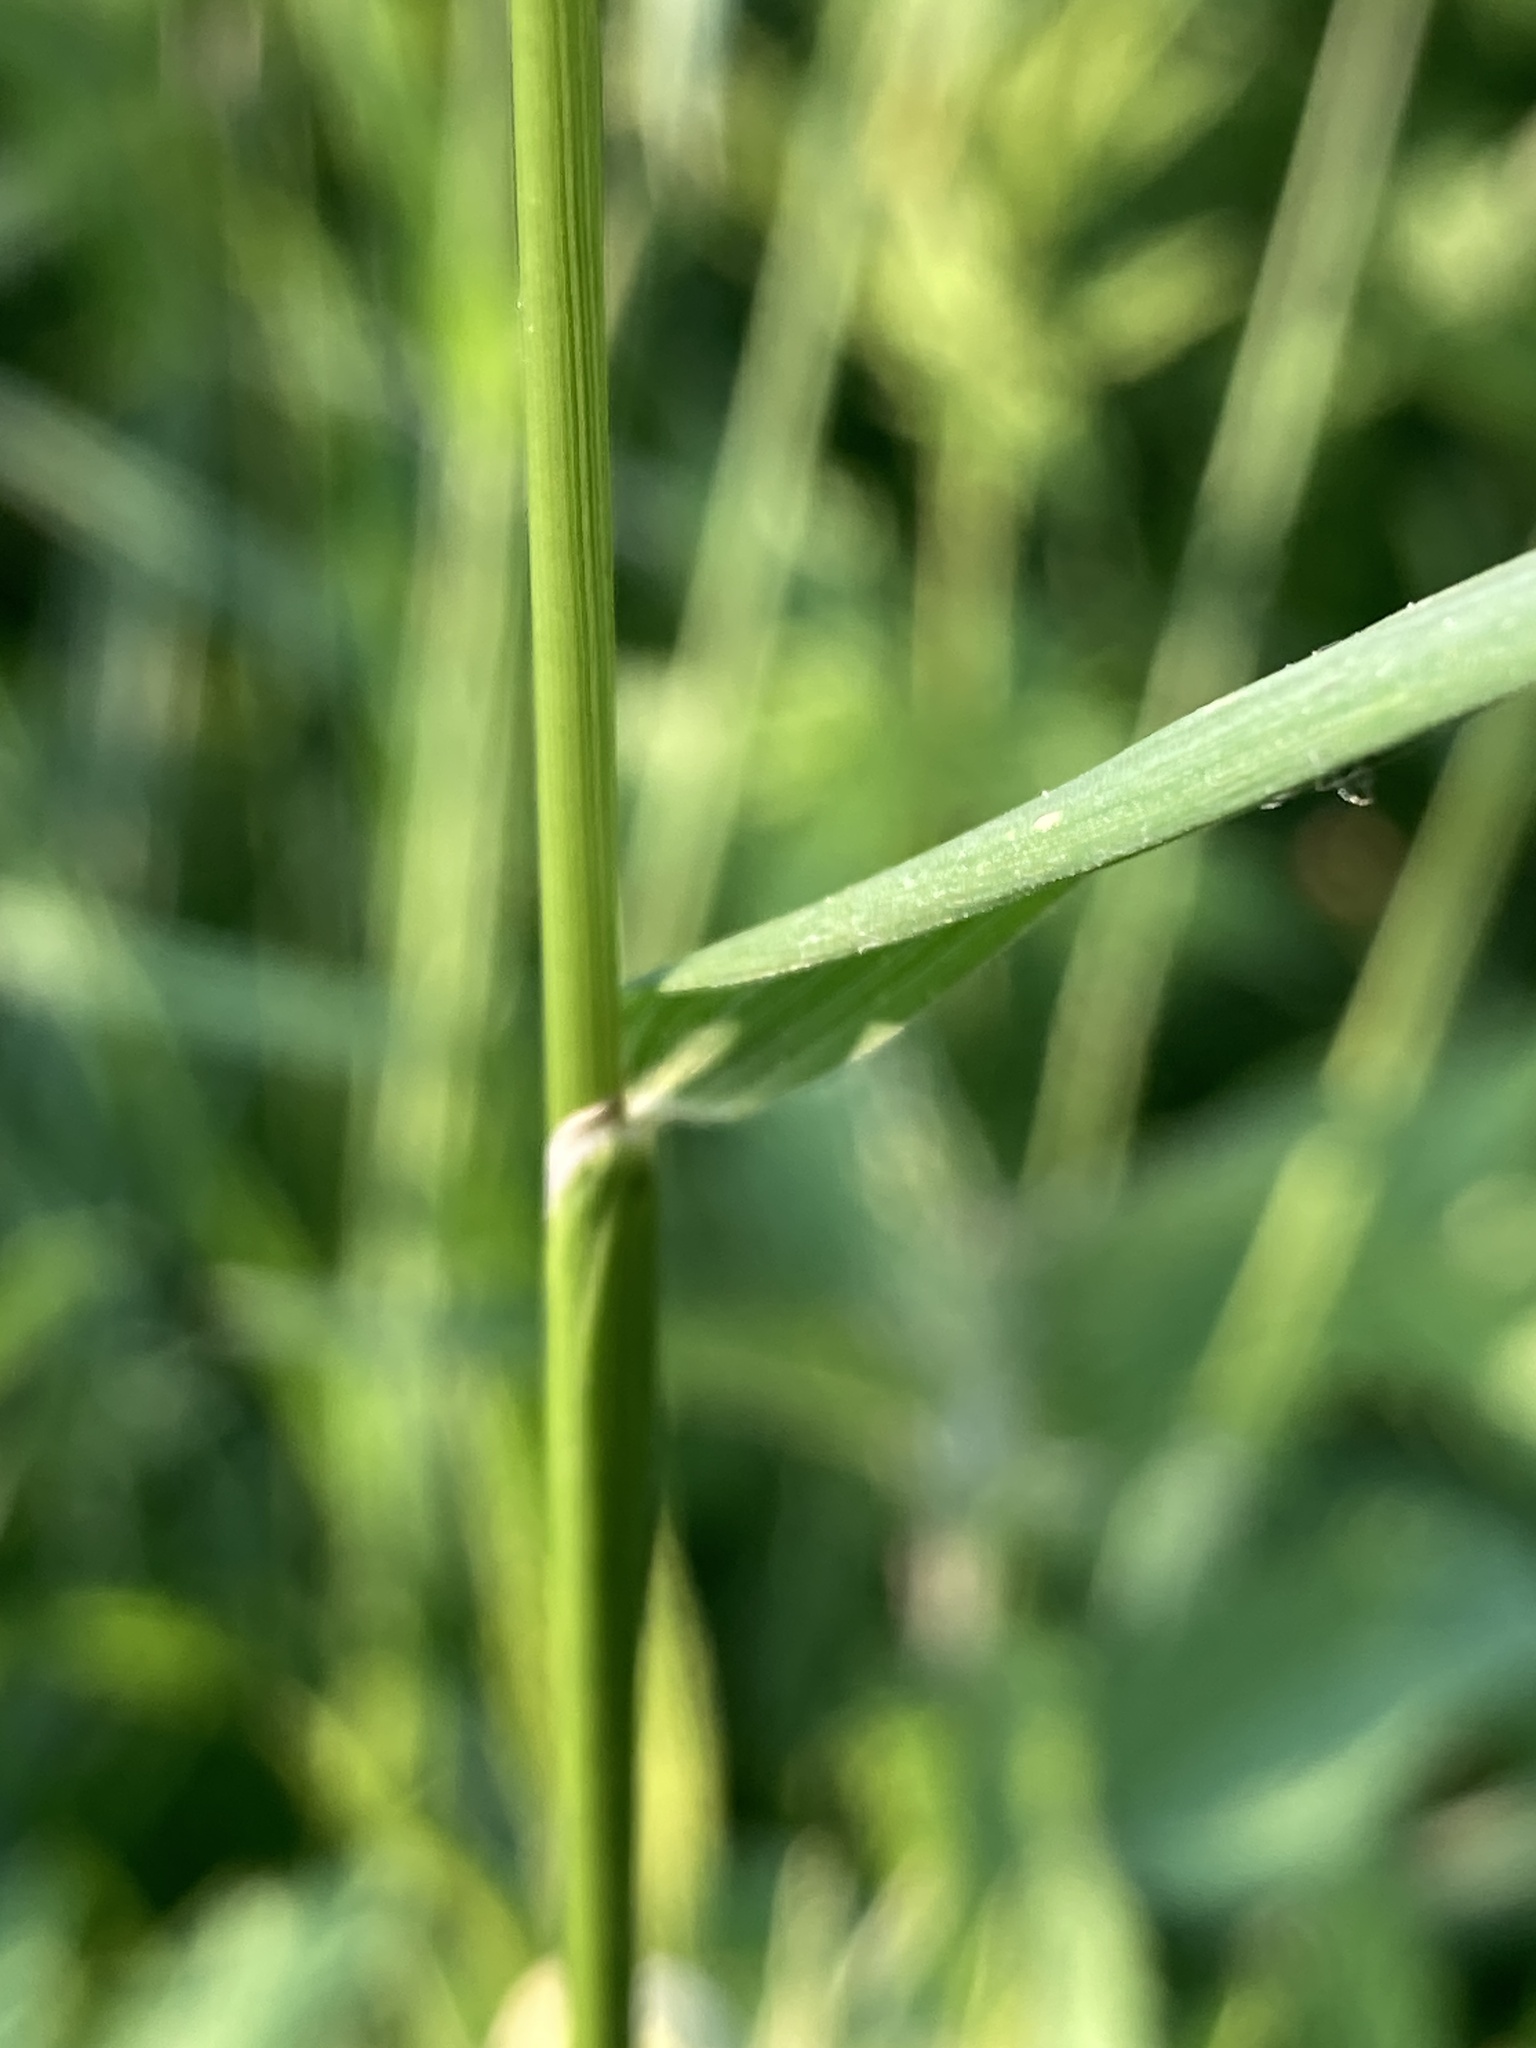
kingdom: Plantae
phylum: Tracheophyta
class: Liliopsida
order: Poales
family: Poaceae
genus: Alopecurus
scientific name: Alopecurus pratensis
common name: Meadow foxtail
